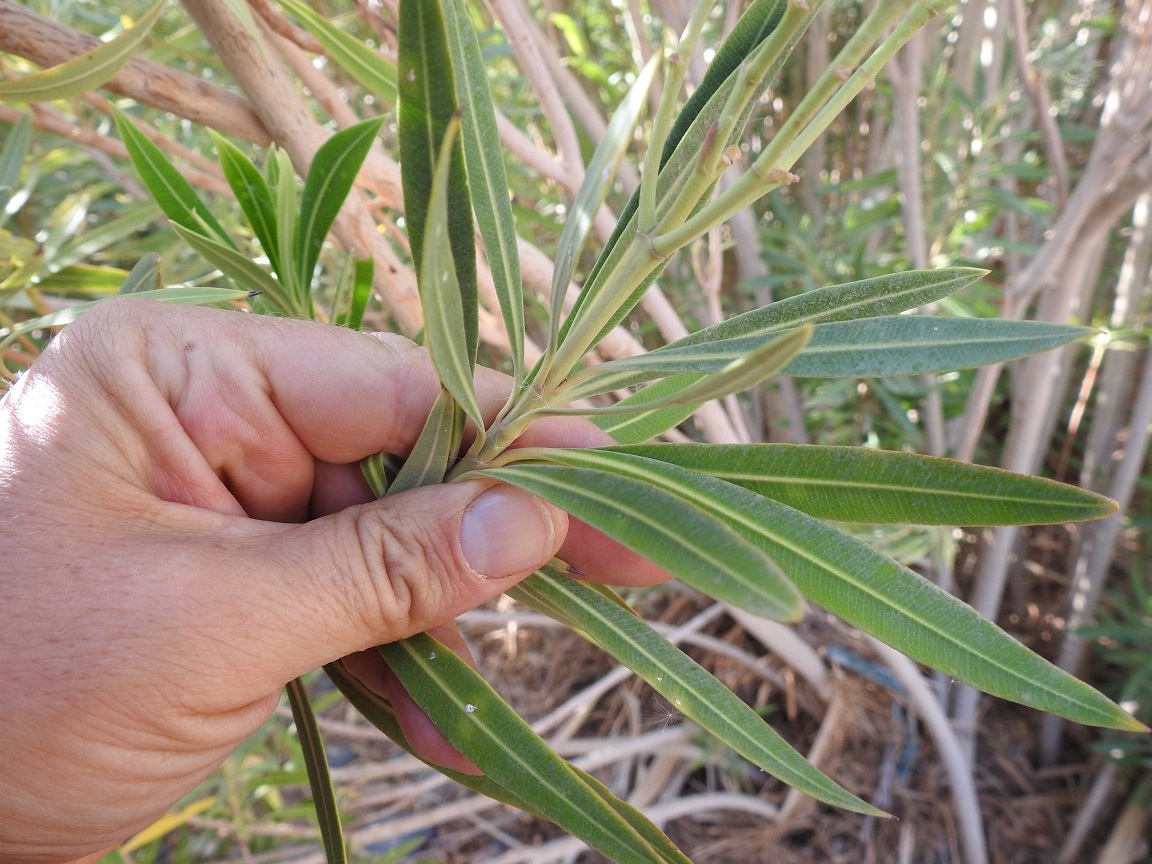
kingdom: Plantae
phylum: Tracheophyta
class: Magnoliopsida
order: Gentianales
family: Apocynaceae
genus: Nerium
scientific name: Nerium oleander
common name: Oleander
